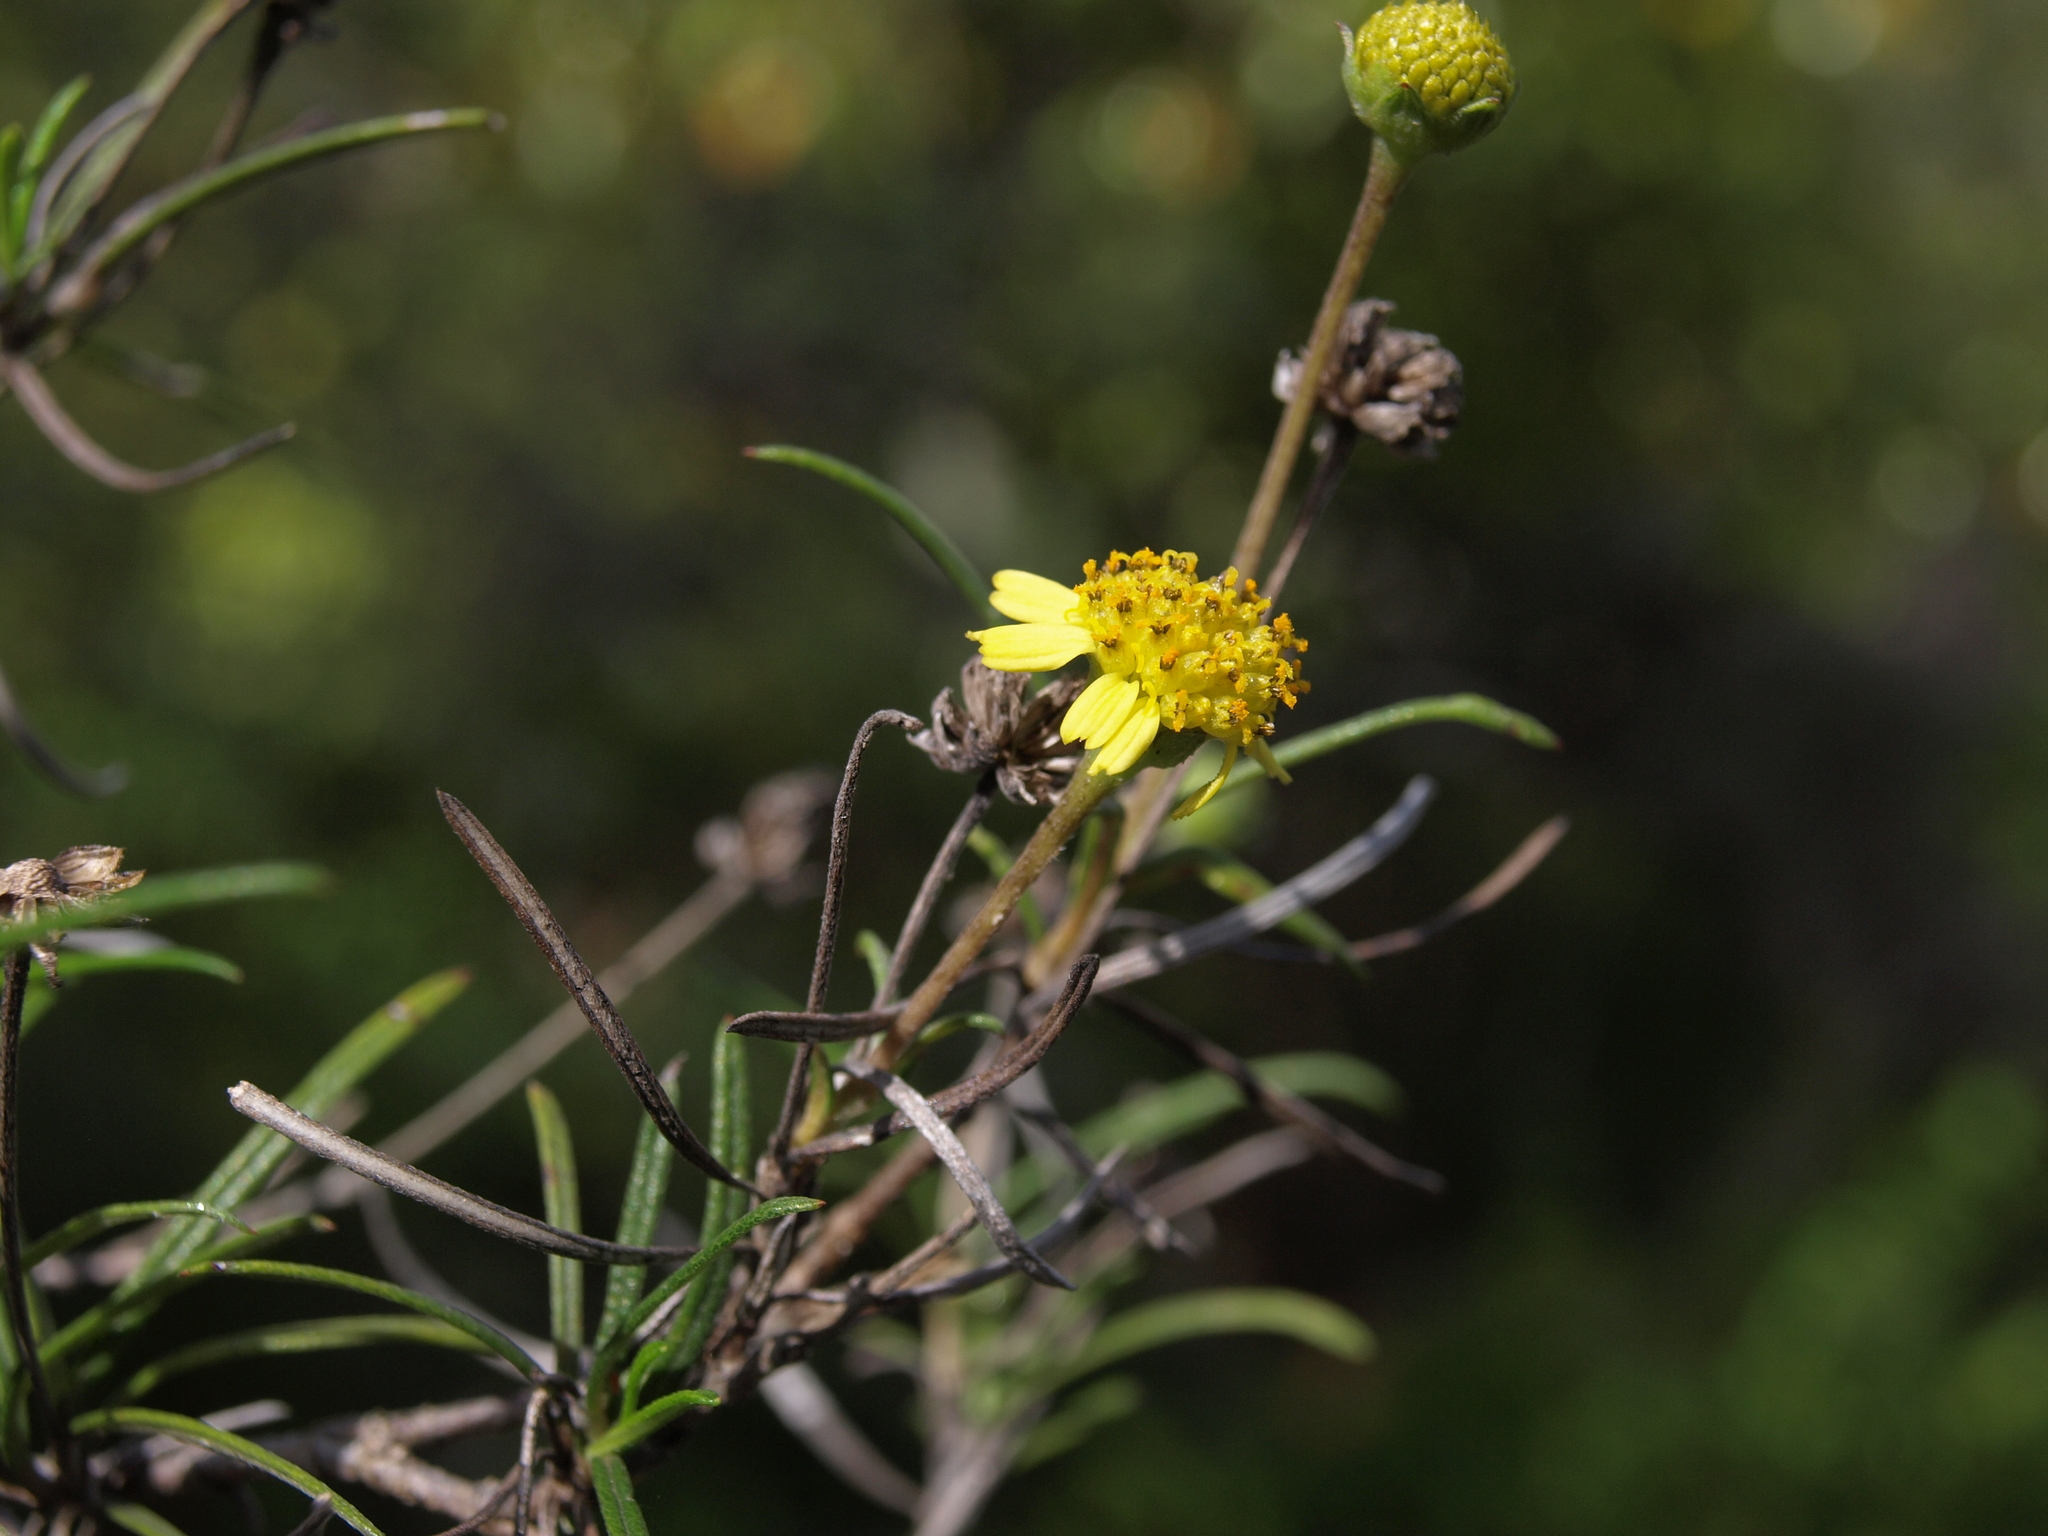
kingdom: Plantae
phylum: Tracheophyta
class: Magnoliopsida
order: Asterales
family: Asteraceae
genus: Trigonopterum
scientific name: Trigonopterum laricifolium
